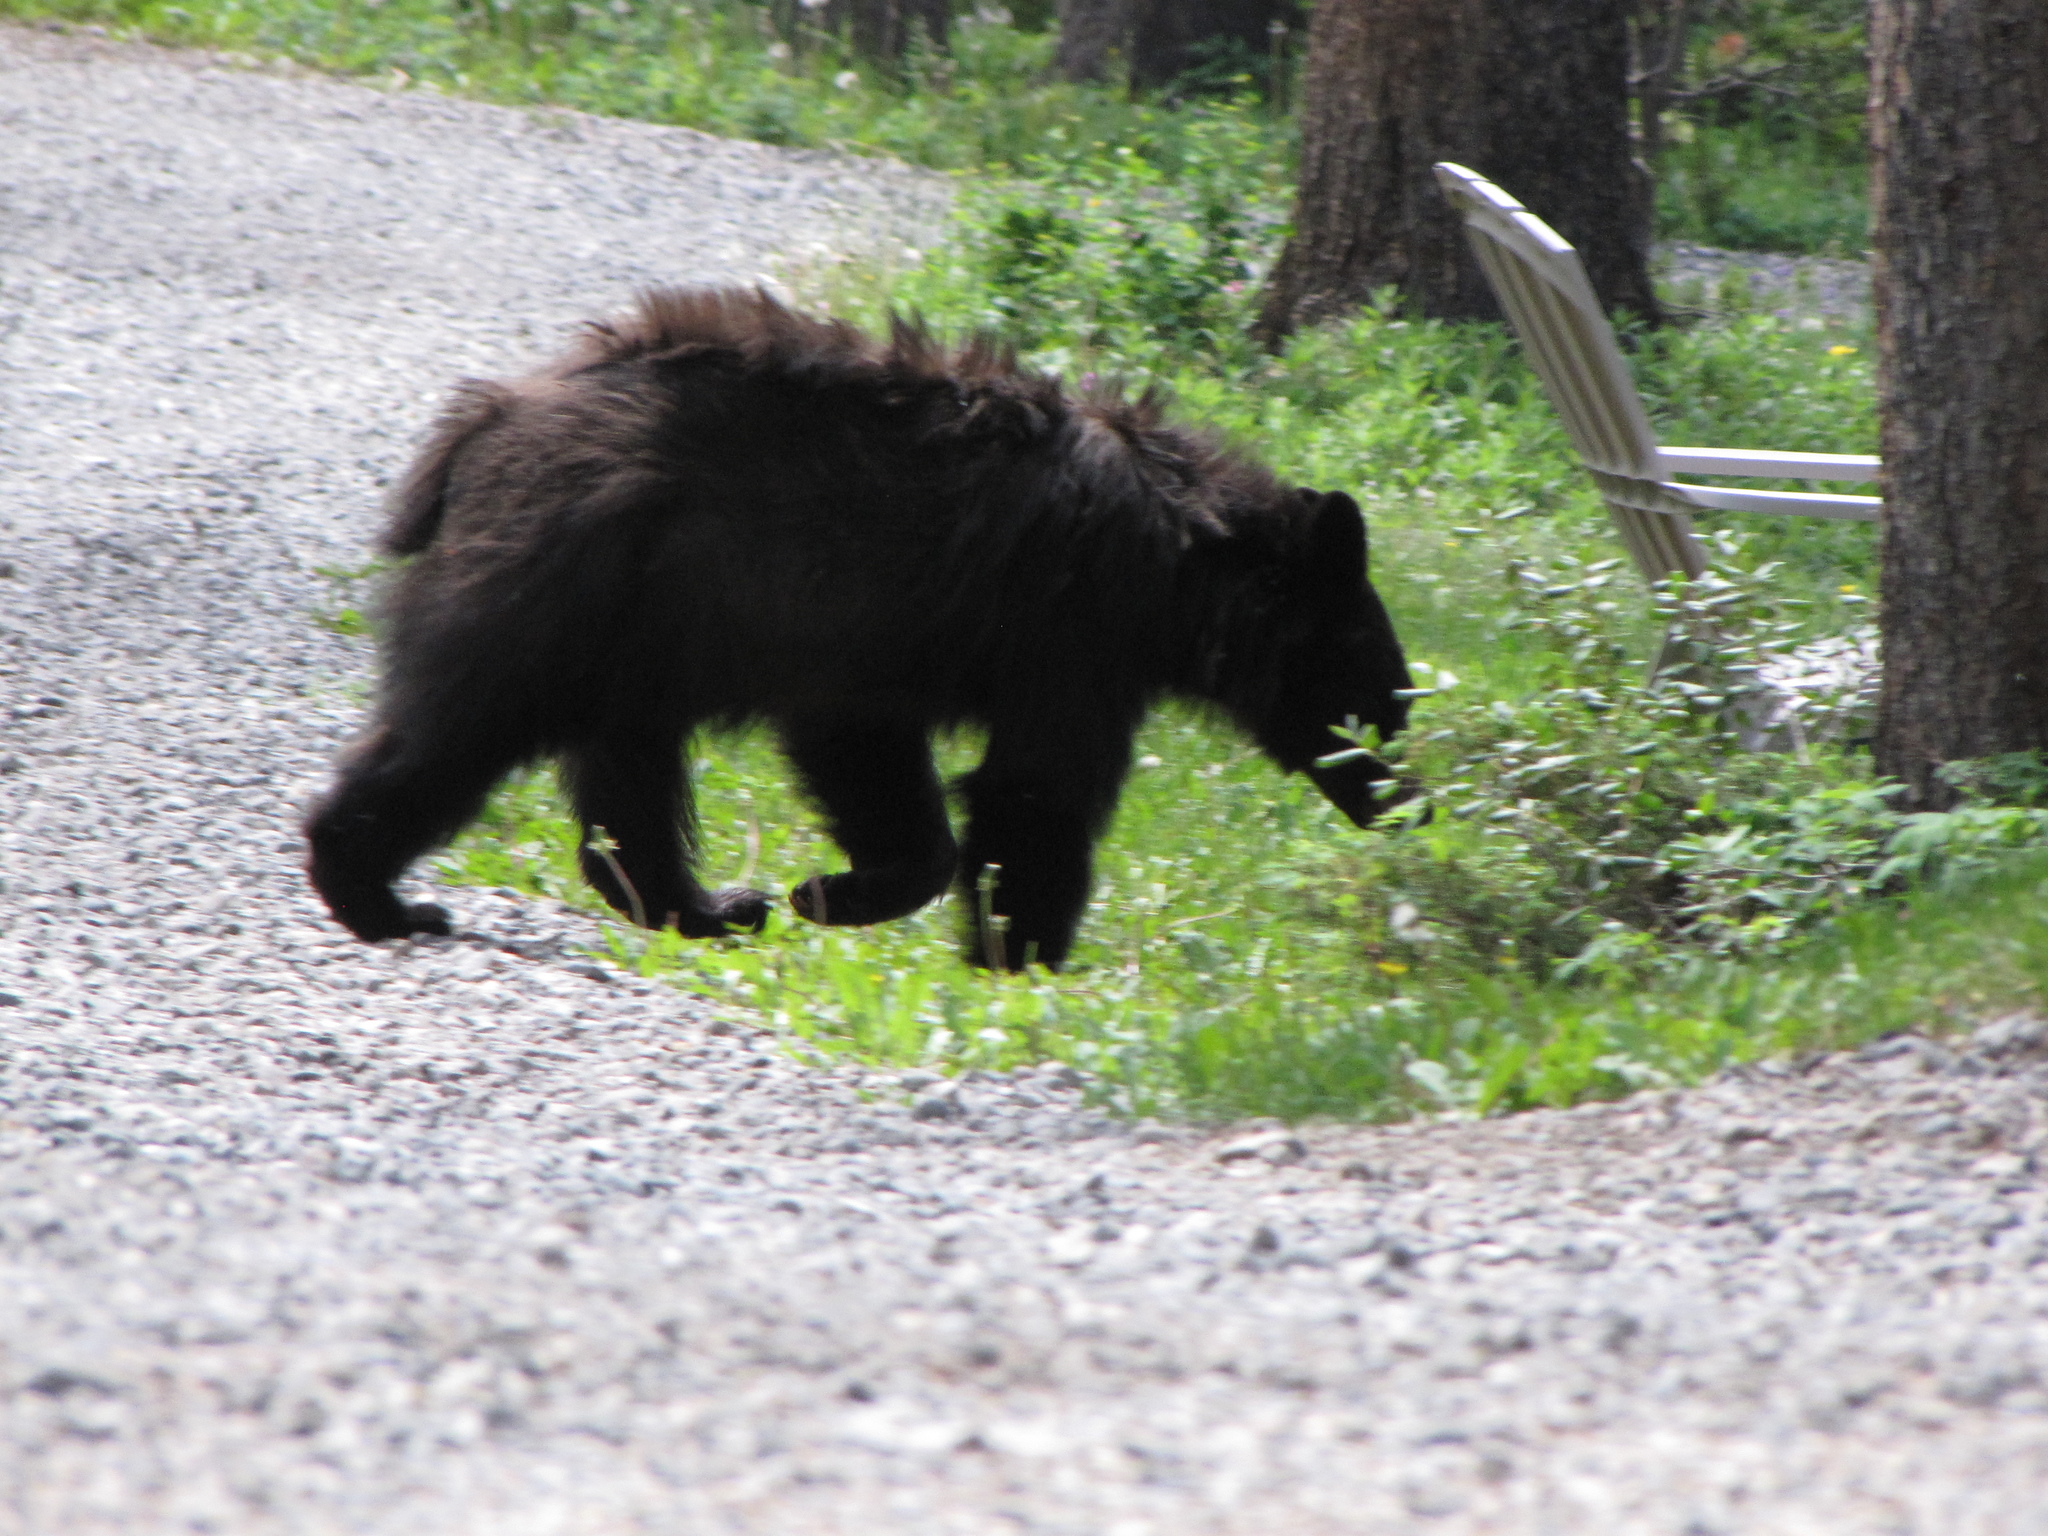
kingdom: Animalia
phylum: Chordata
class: Mammalia
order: Carnivora
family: Ursidae
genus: Ursus
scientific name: Ursus americanus
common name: American black bear
